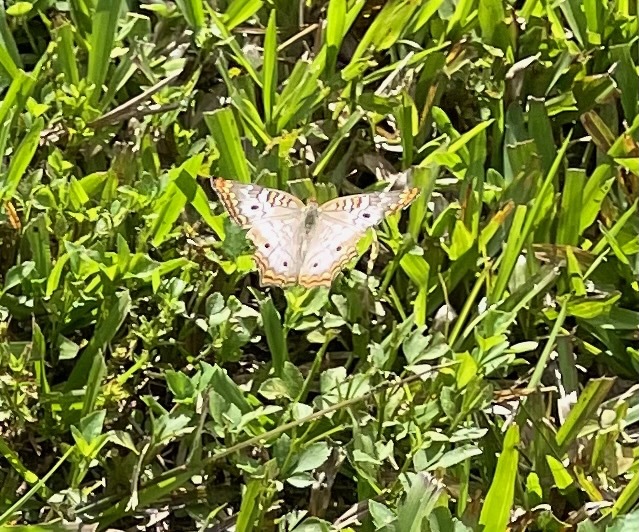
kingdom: Animalia
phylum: Arthropoda
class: Insecta
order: Lepidoptera
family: Nymphalidae
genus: Anartia
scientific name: Anartia jatrophae
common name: White peacock
